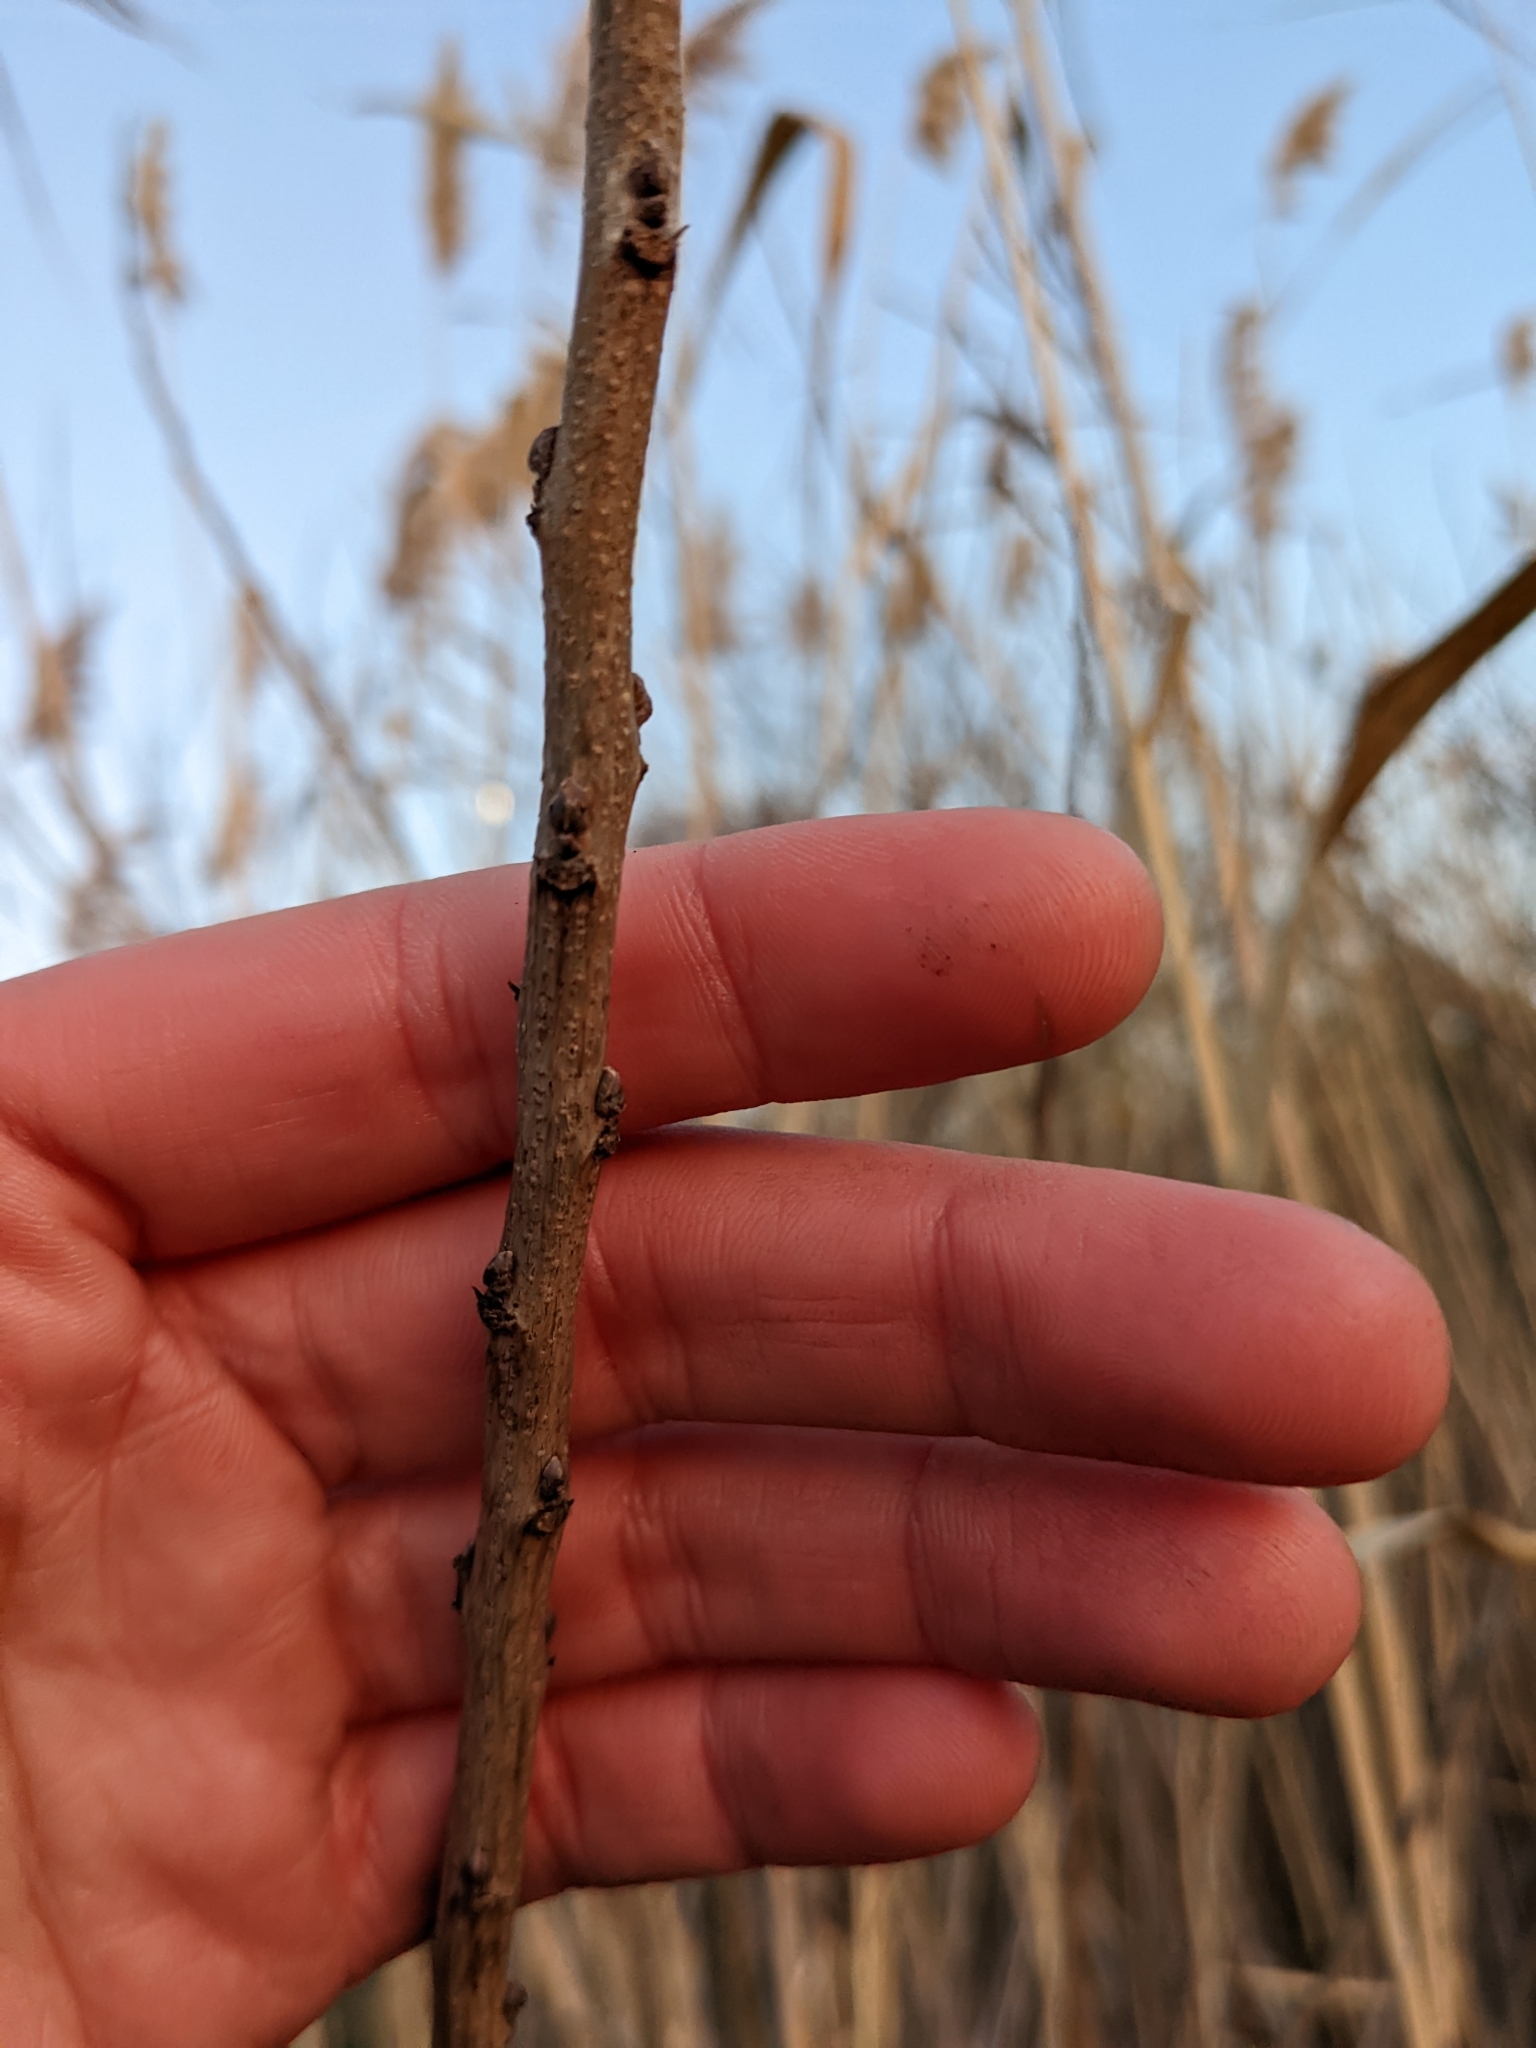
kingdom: Plantae
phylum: Tracheophyta
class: Magnoliopsida
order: Fabales
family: Fabaceae
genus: Amorpha
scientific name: Amorpha fruticosa
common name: False indigo
